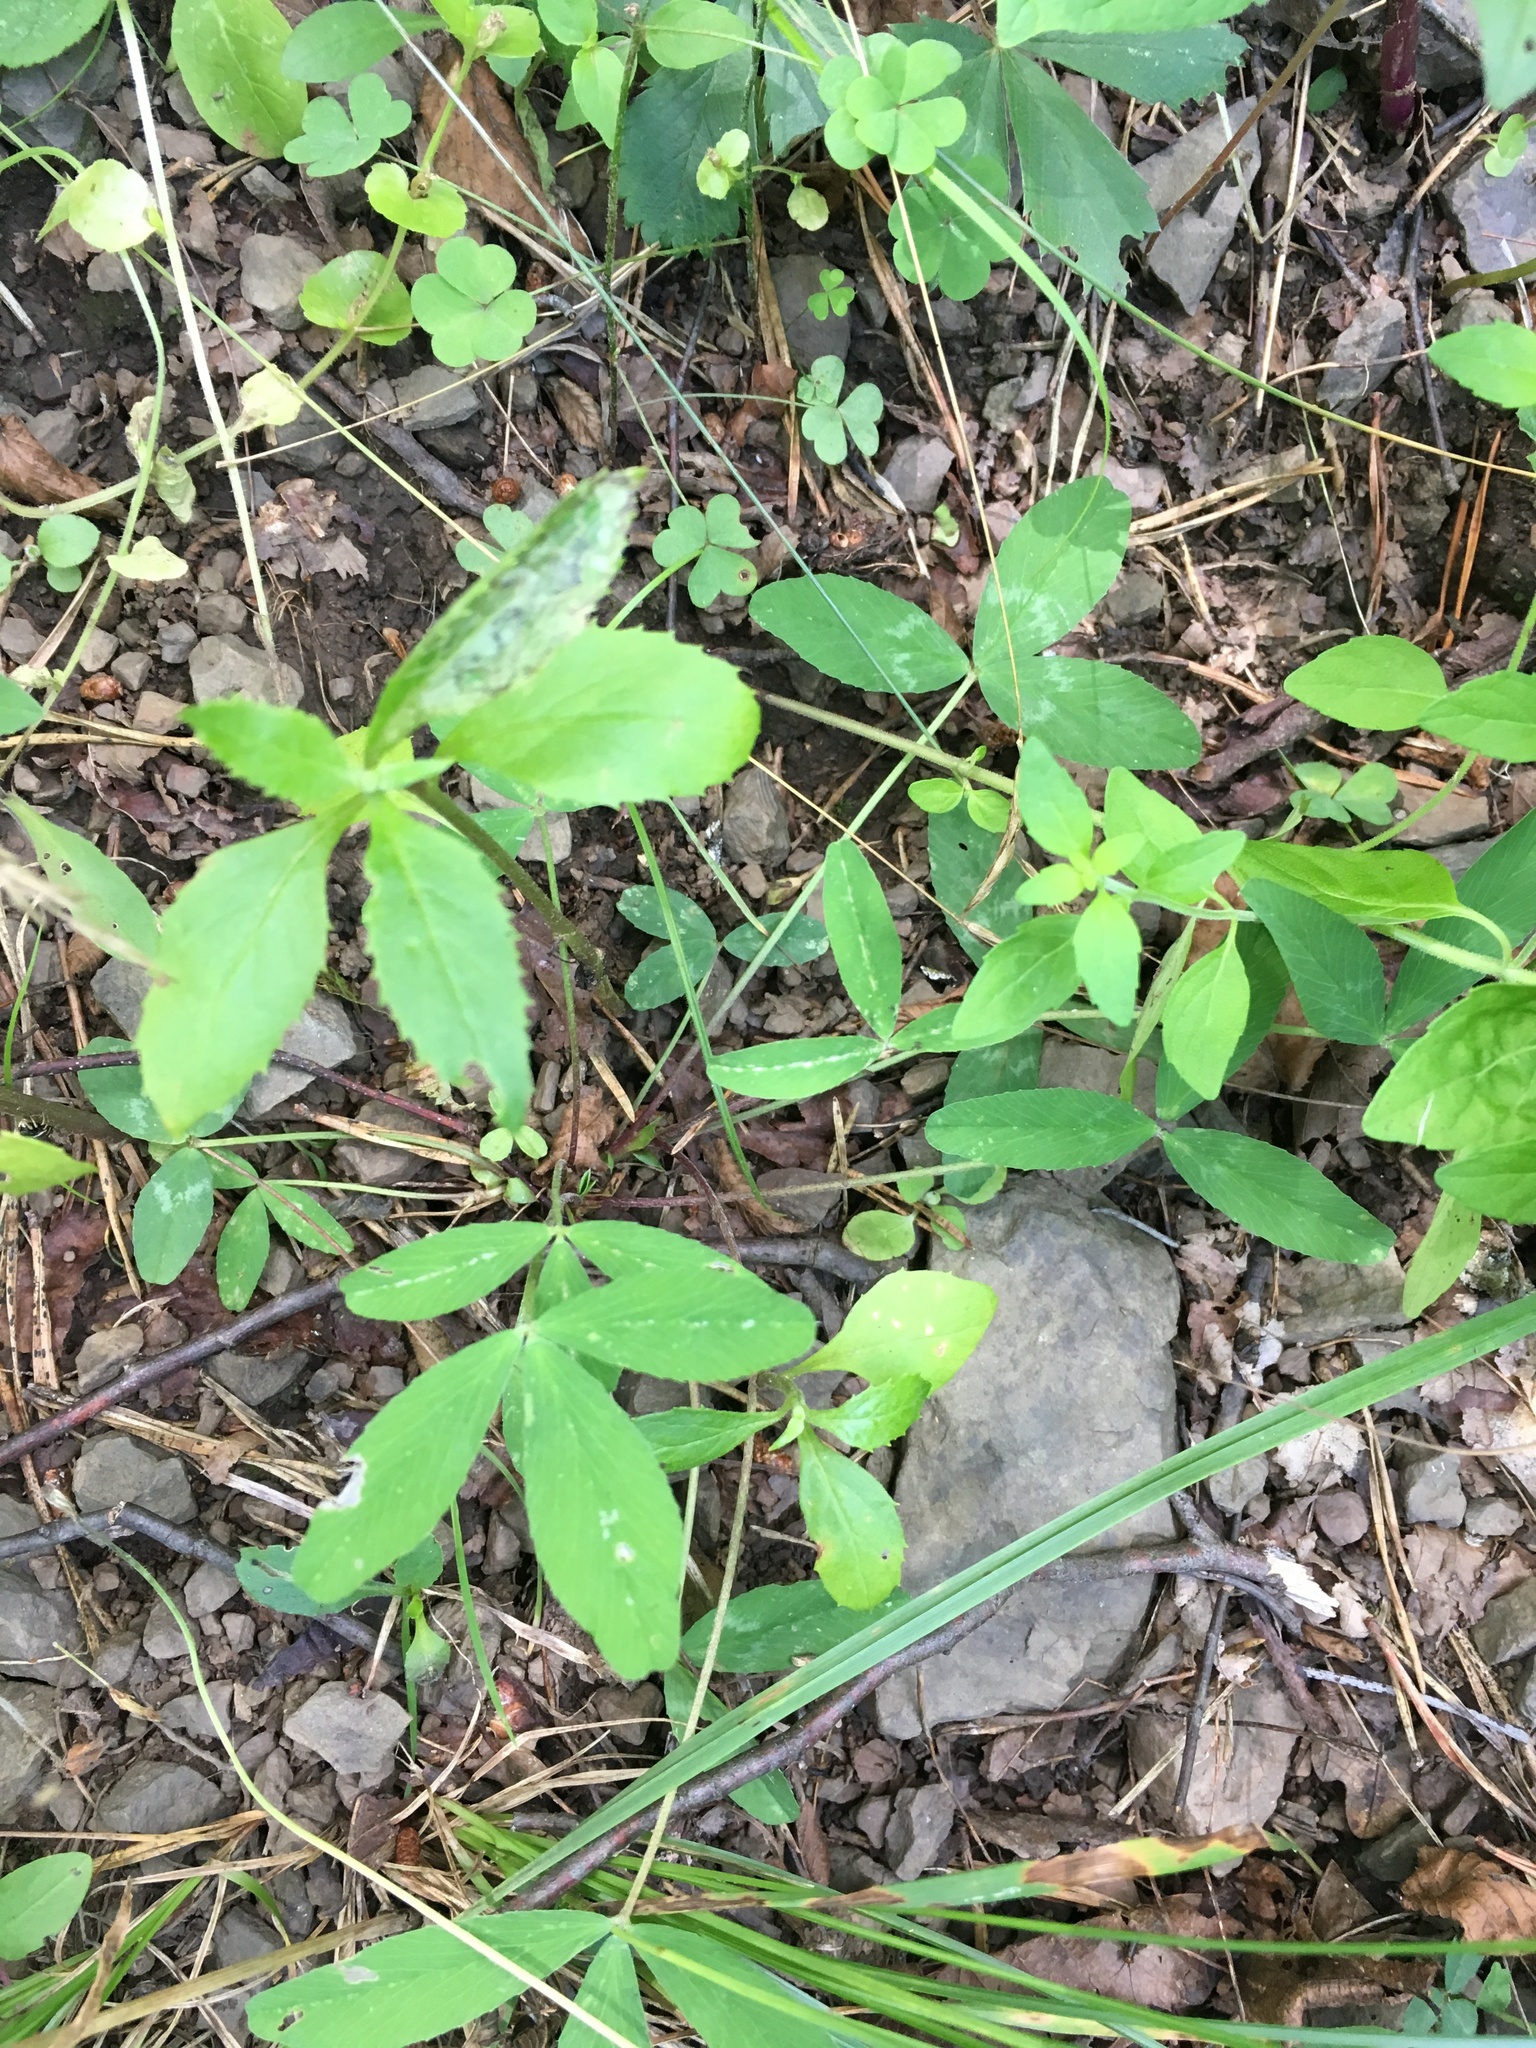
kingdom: Plantae
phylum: Tracheophyta
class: Magnoliopsida
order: Fabales
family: Fabaceae
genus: Trifolium
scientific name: Trifolium virginicum
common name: Kate's mountain clover
